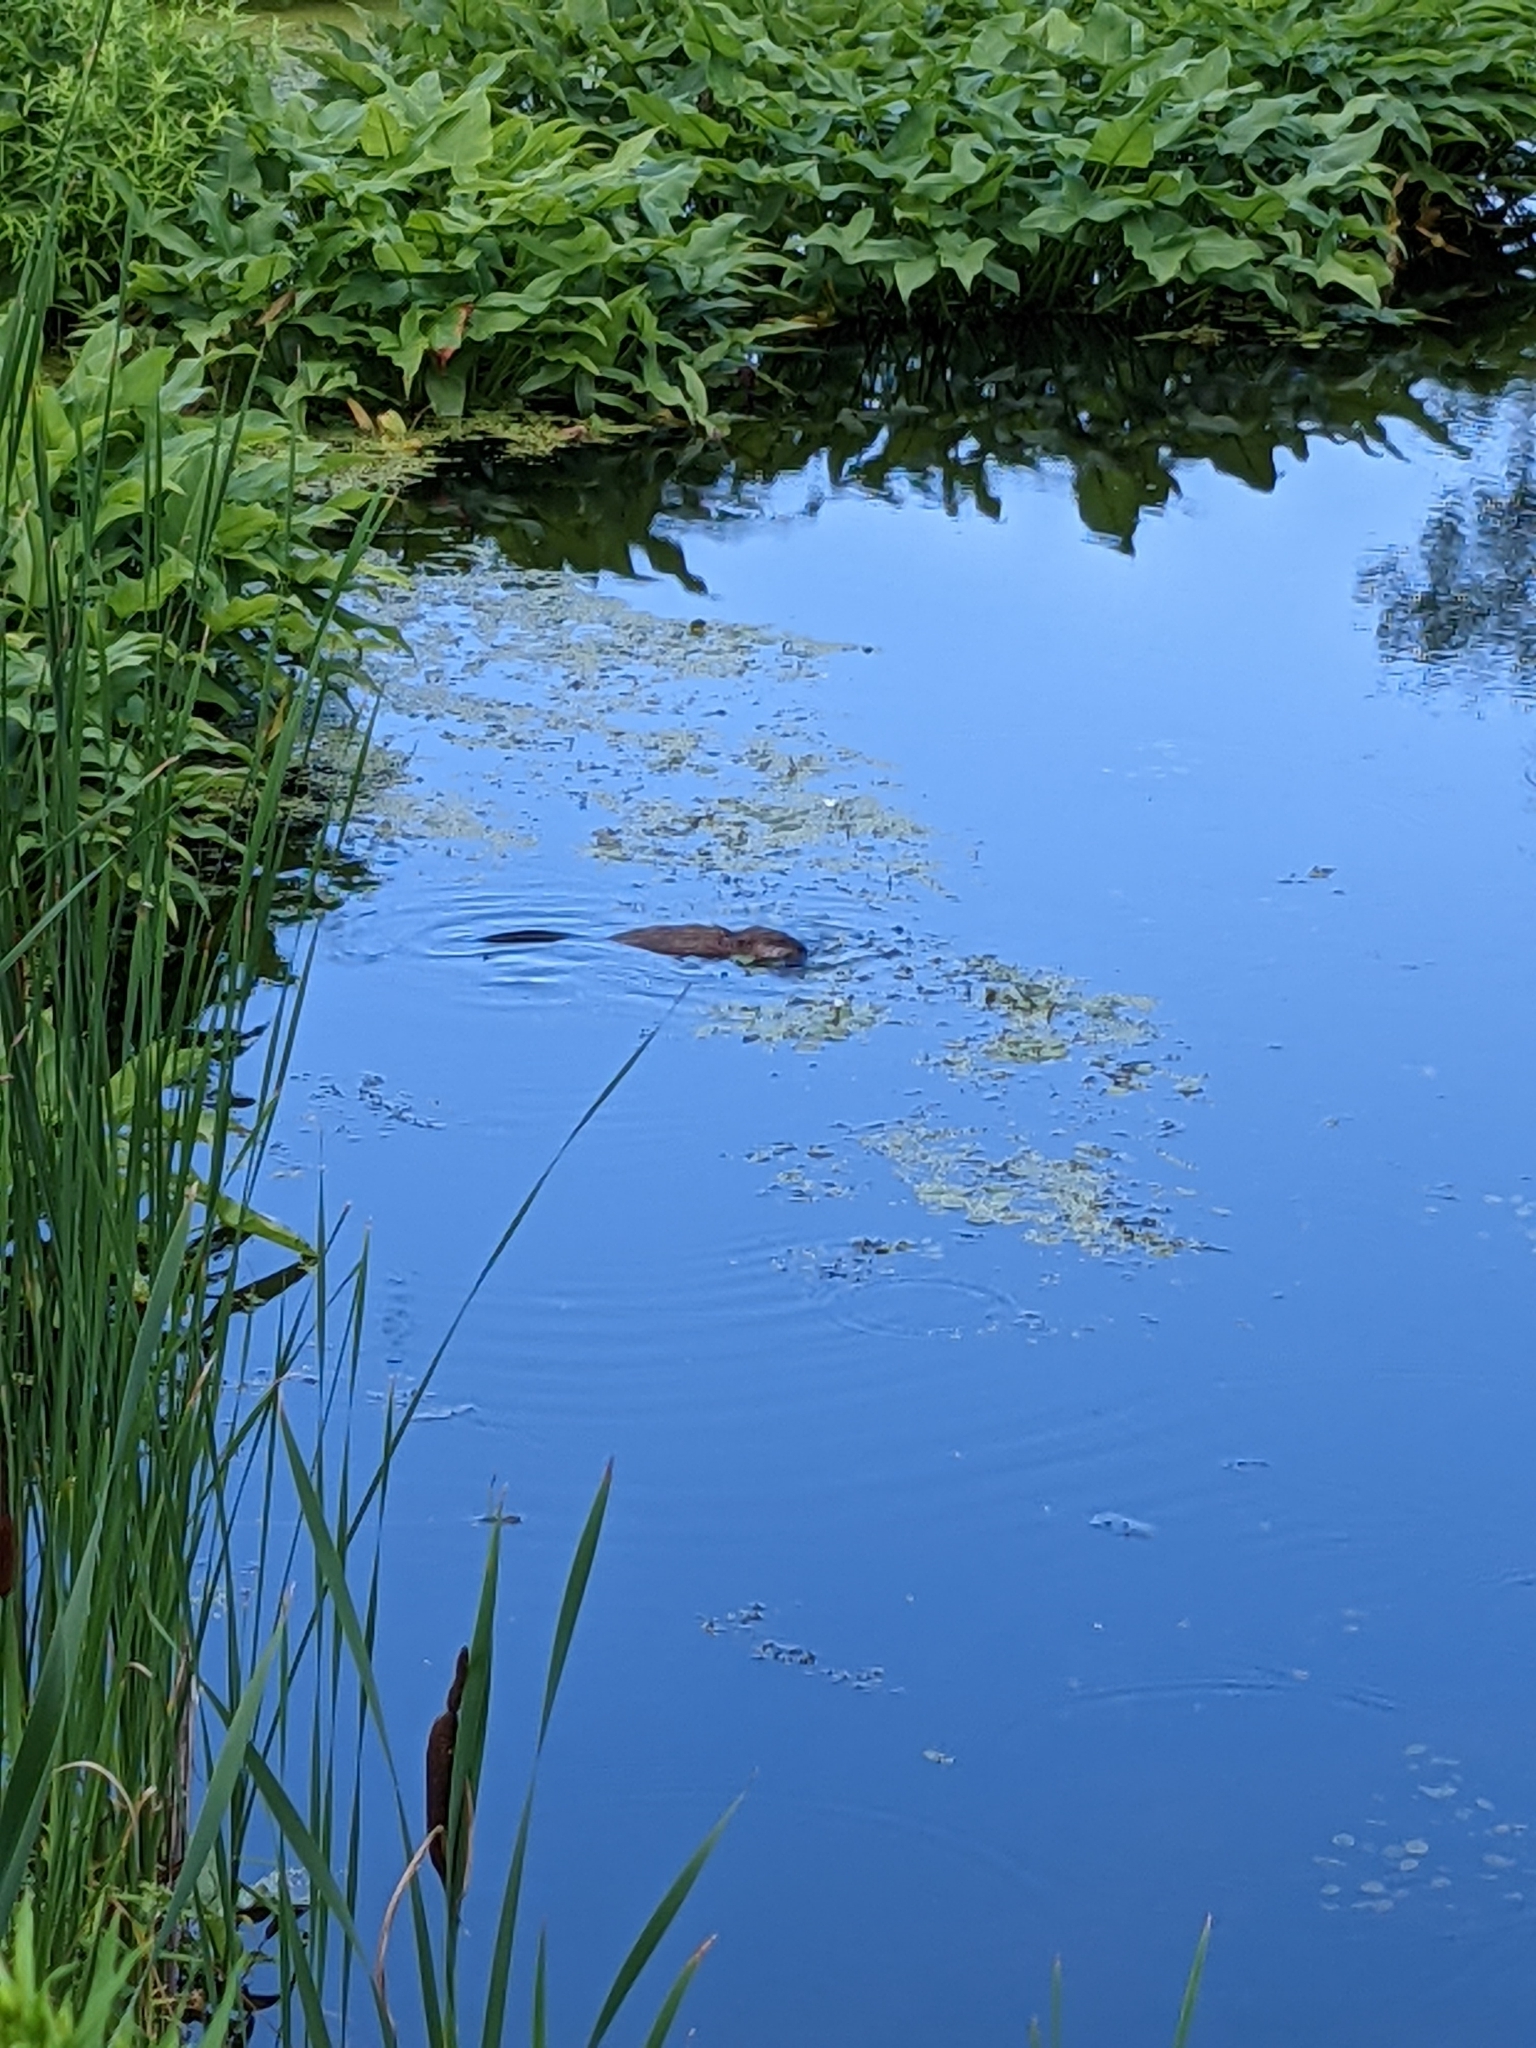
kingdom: Animalia
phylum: Chordata
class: Mammalia
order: Rodentia
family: Cricetidae
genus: Ondatra
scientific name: Ondatra zibethicus
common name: Muskrat
